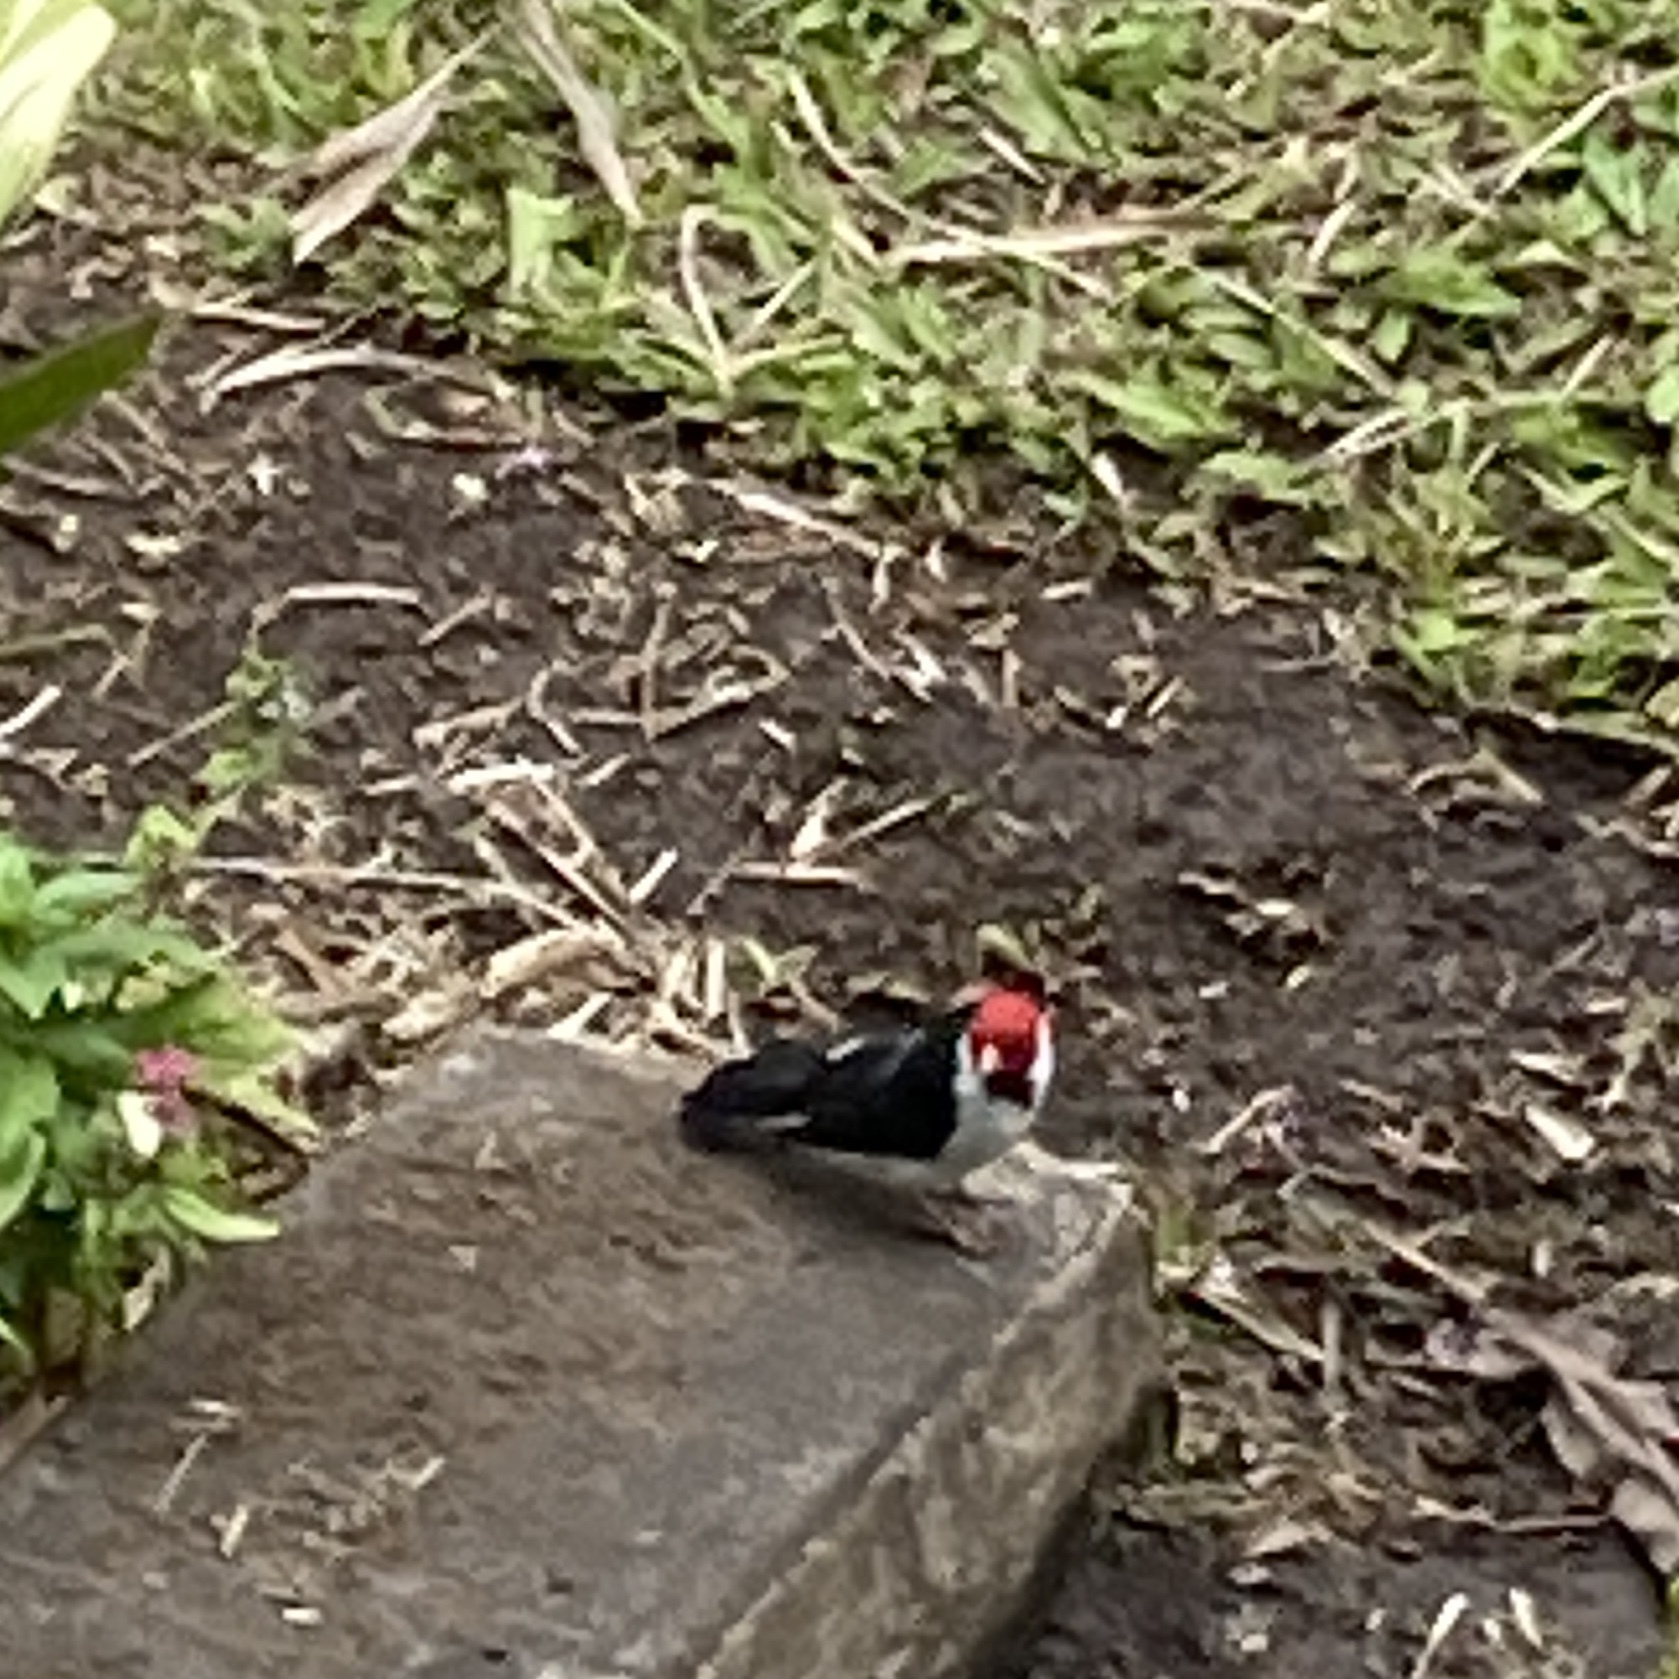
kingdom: Animalia
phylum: Chordata
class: Aves
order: Passeriformes
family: Thraupidae
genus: Paroaria
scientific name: Paroaria capitata
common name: Yellow-billed cardinal
